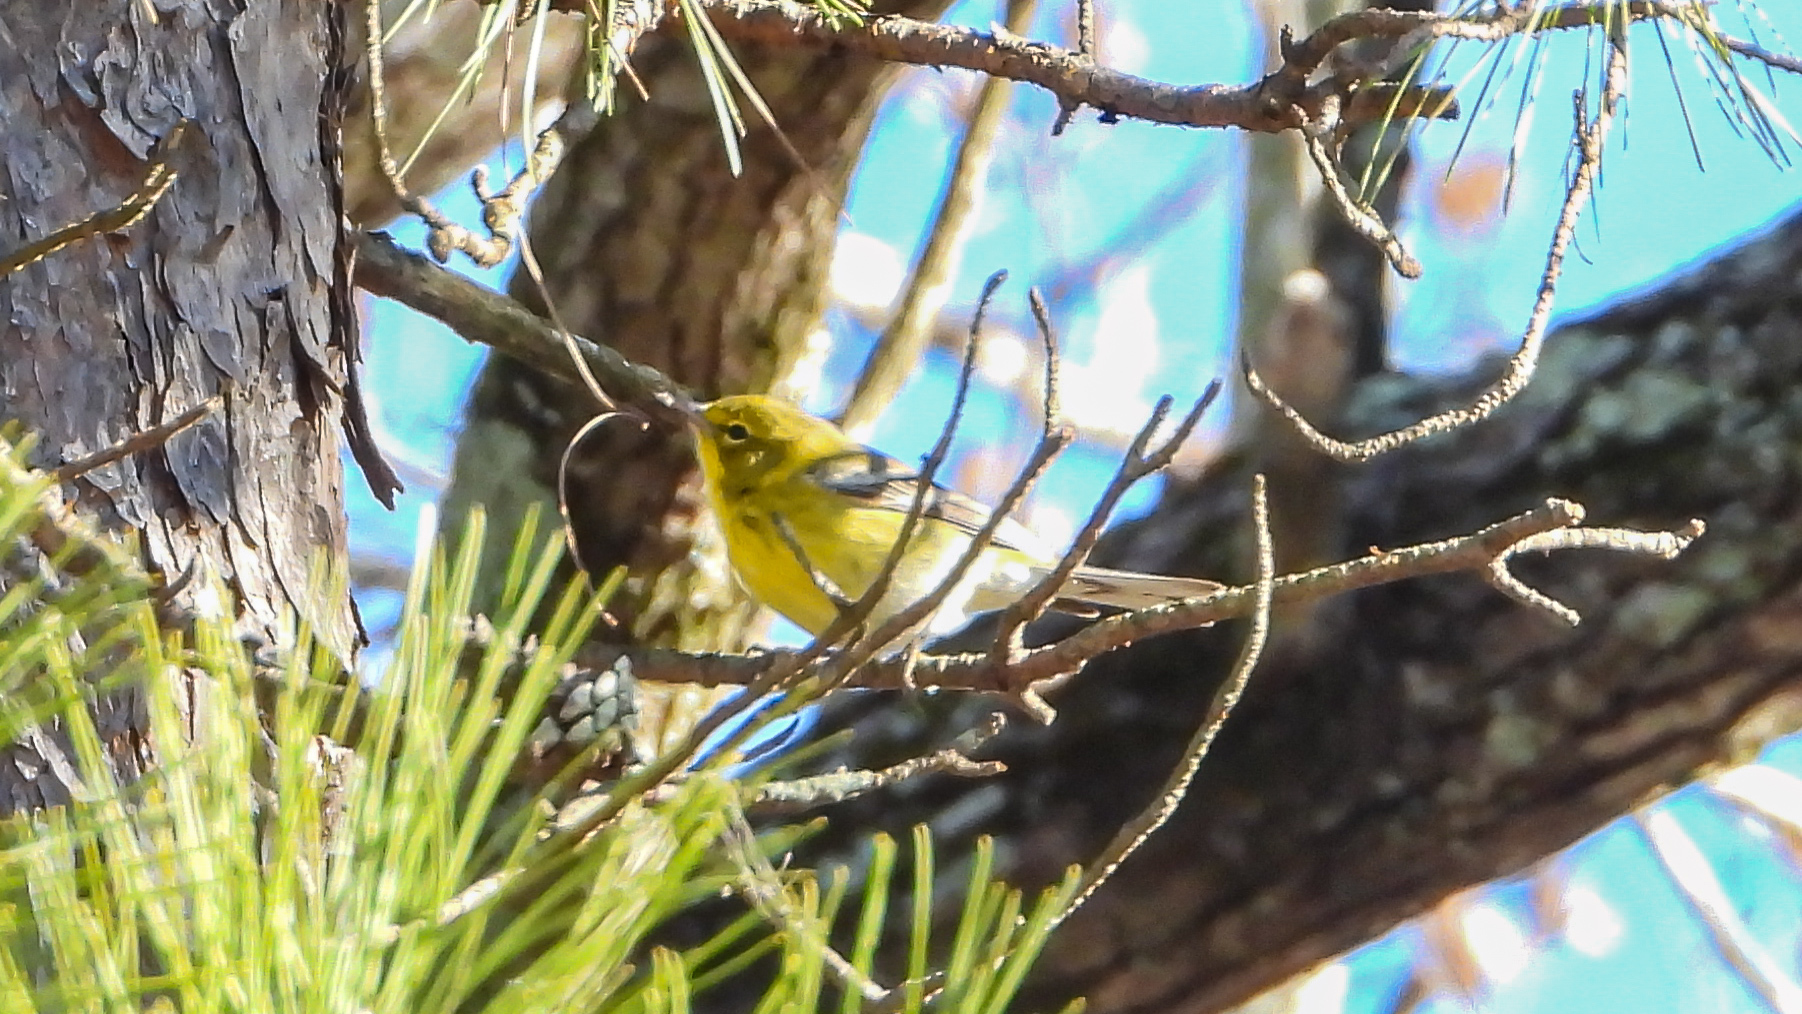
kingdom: Animalia
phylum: Chordata
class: Aves
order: Passeriformes
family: Parulidae
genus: Setophaga
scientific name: Setophaga pinus
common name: Pine warbler
